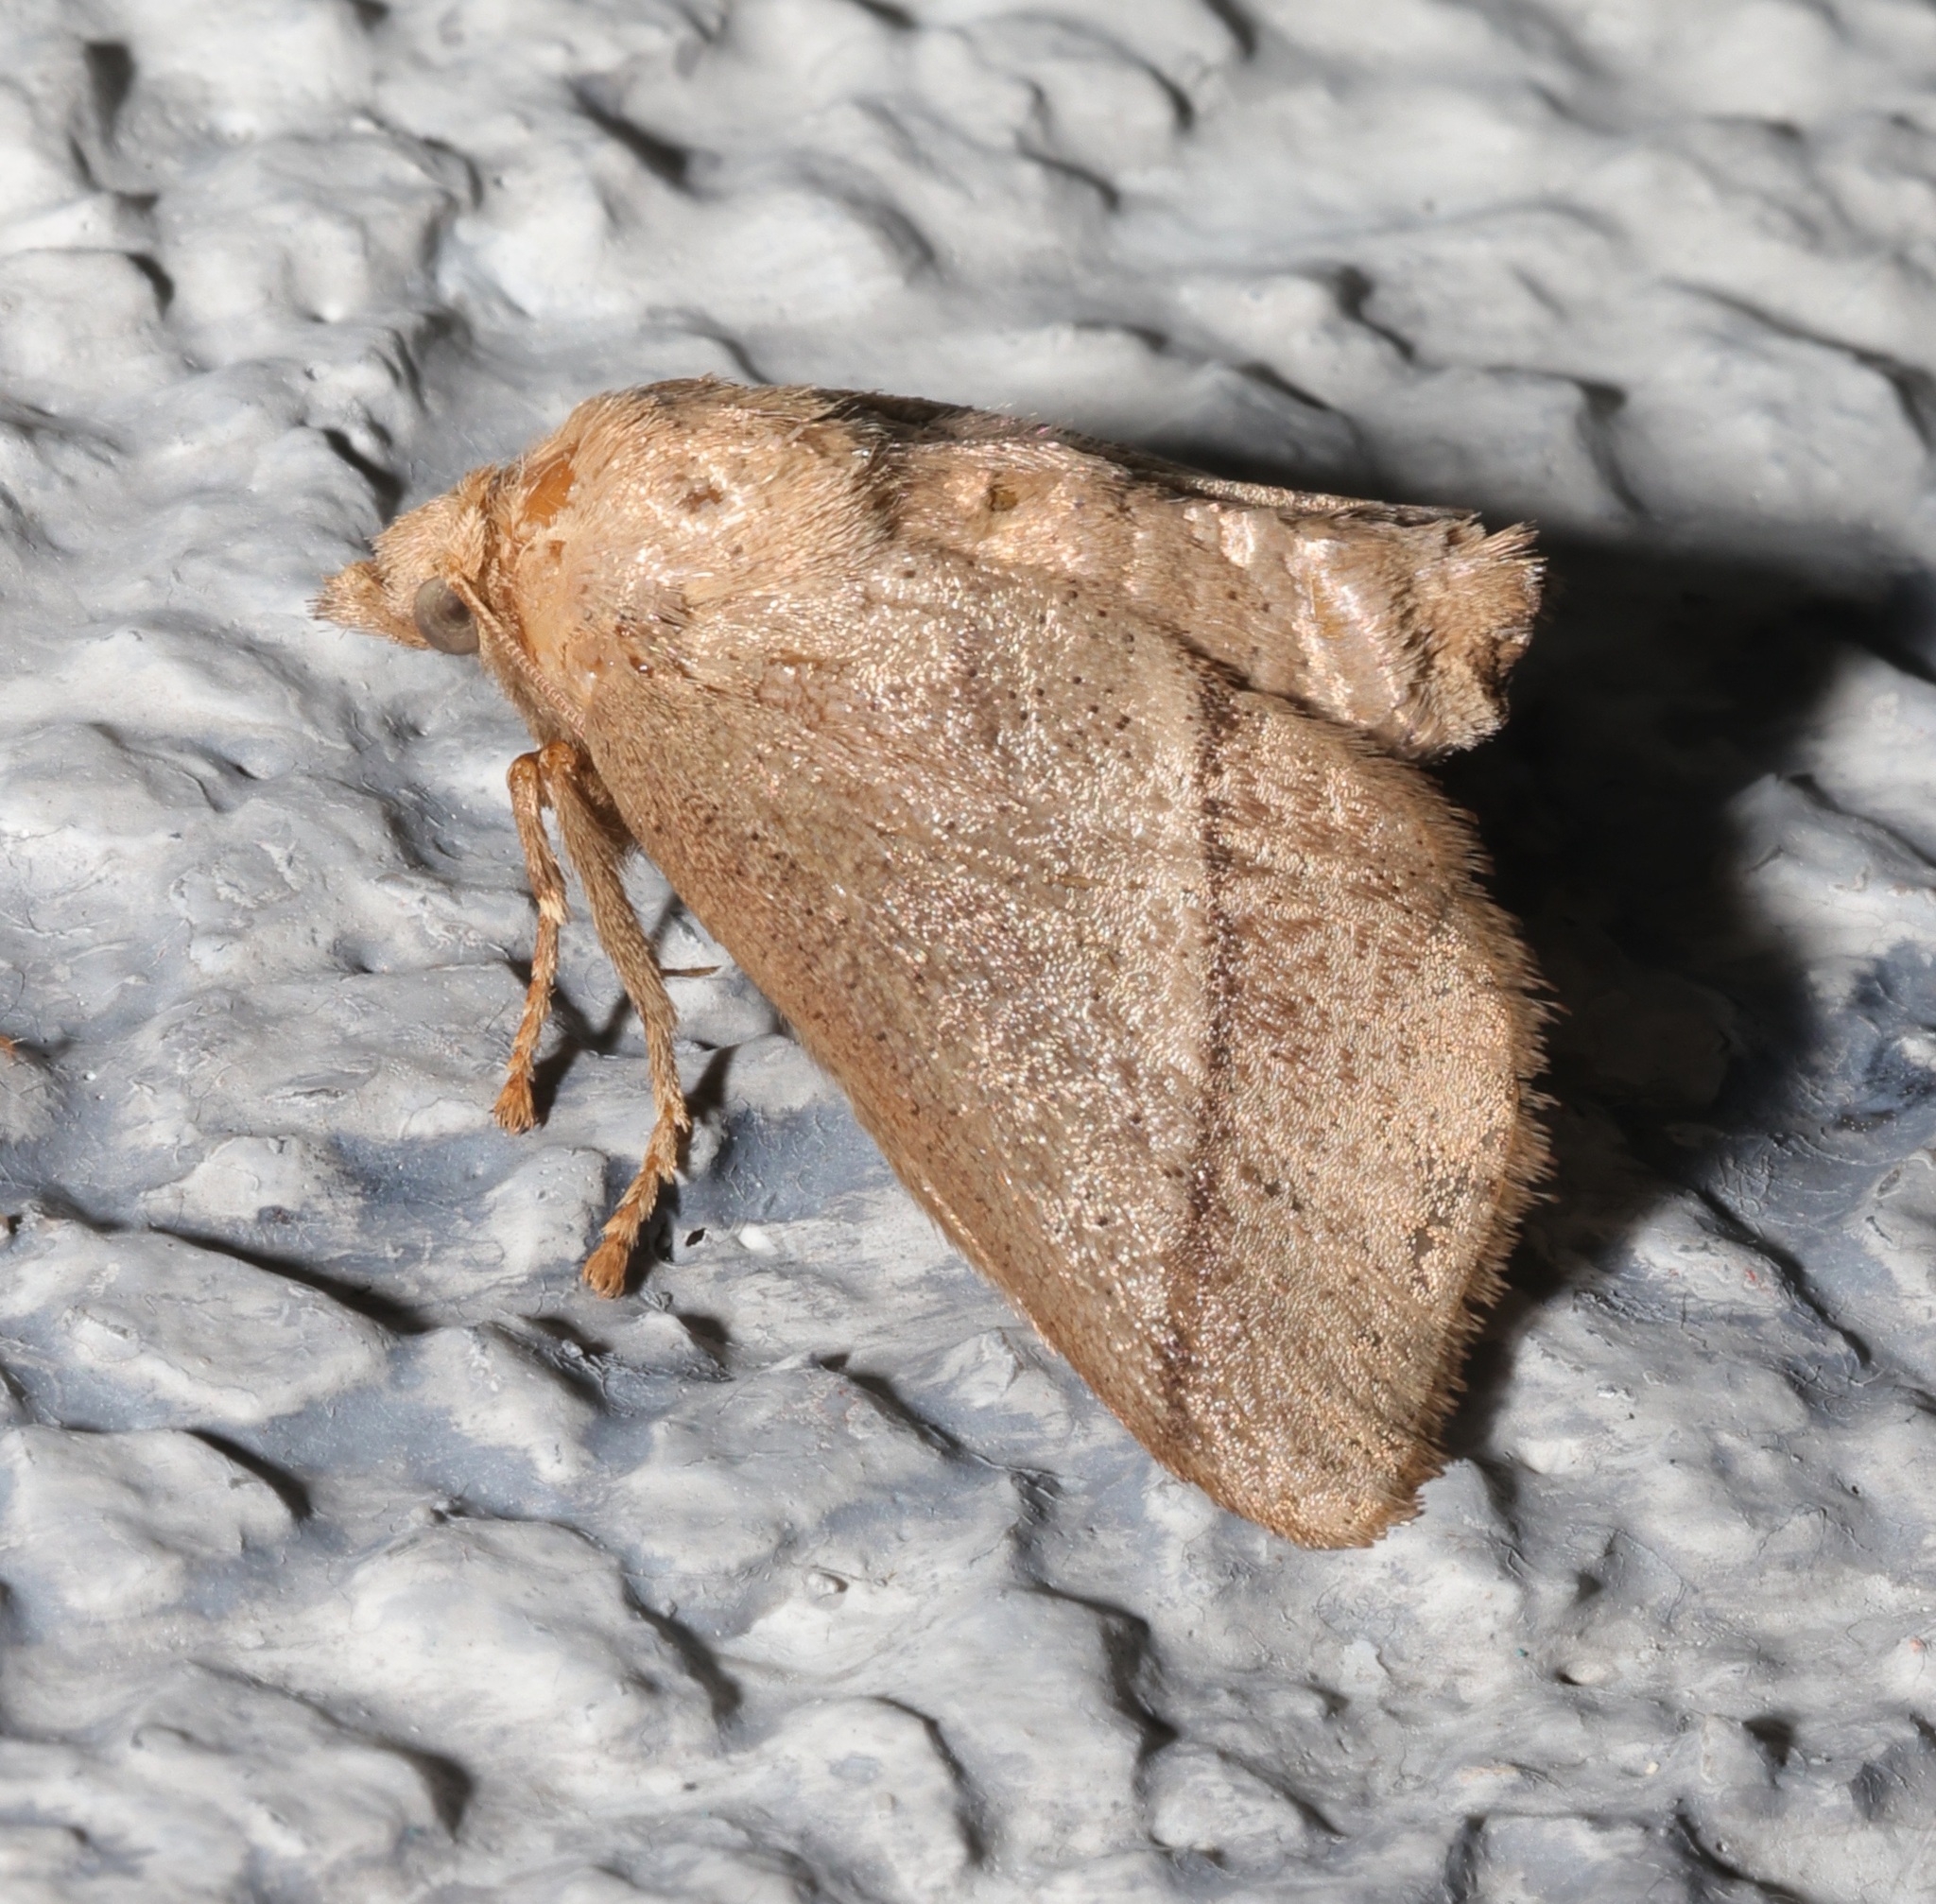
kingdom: Animalia
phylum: Arthropoda
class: Insecta
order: Lepidoptera
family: Limacodidae
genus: Thosea
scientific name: Thosea sinensis
